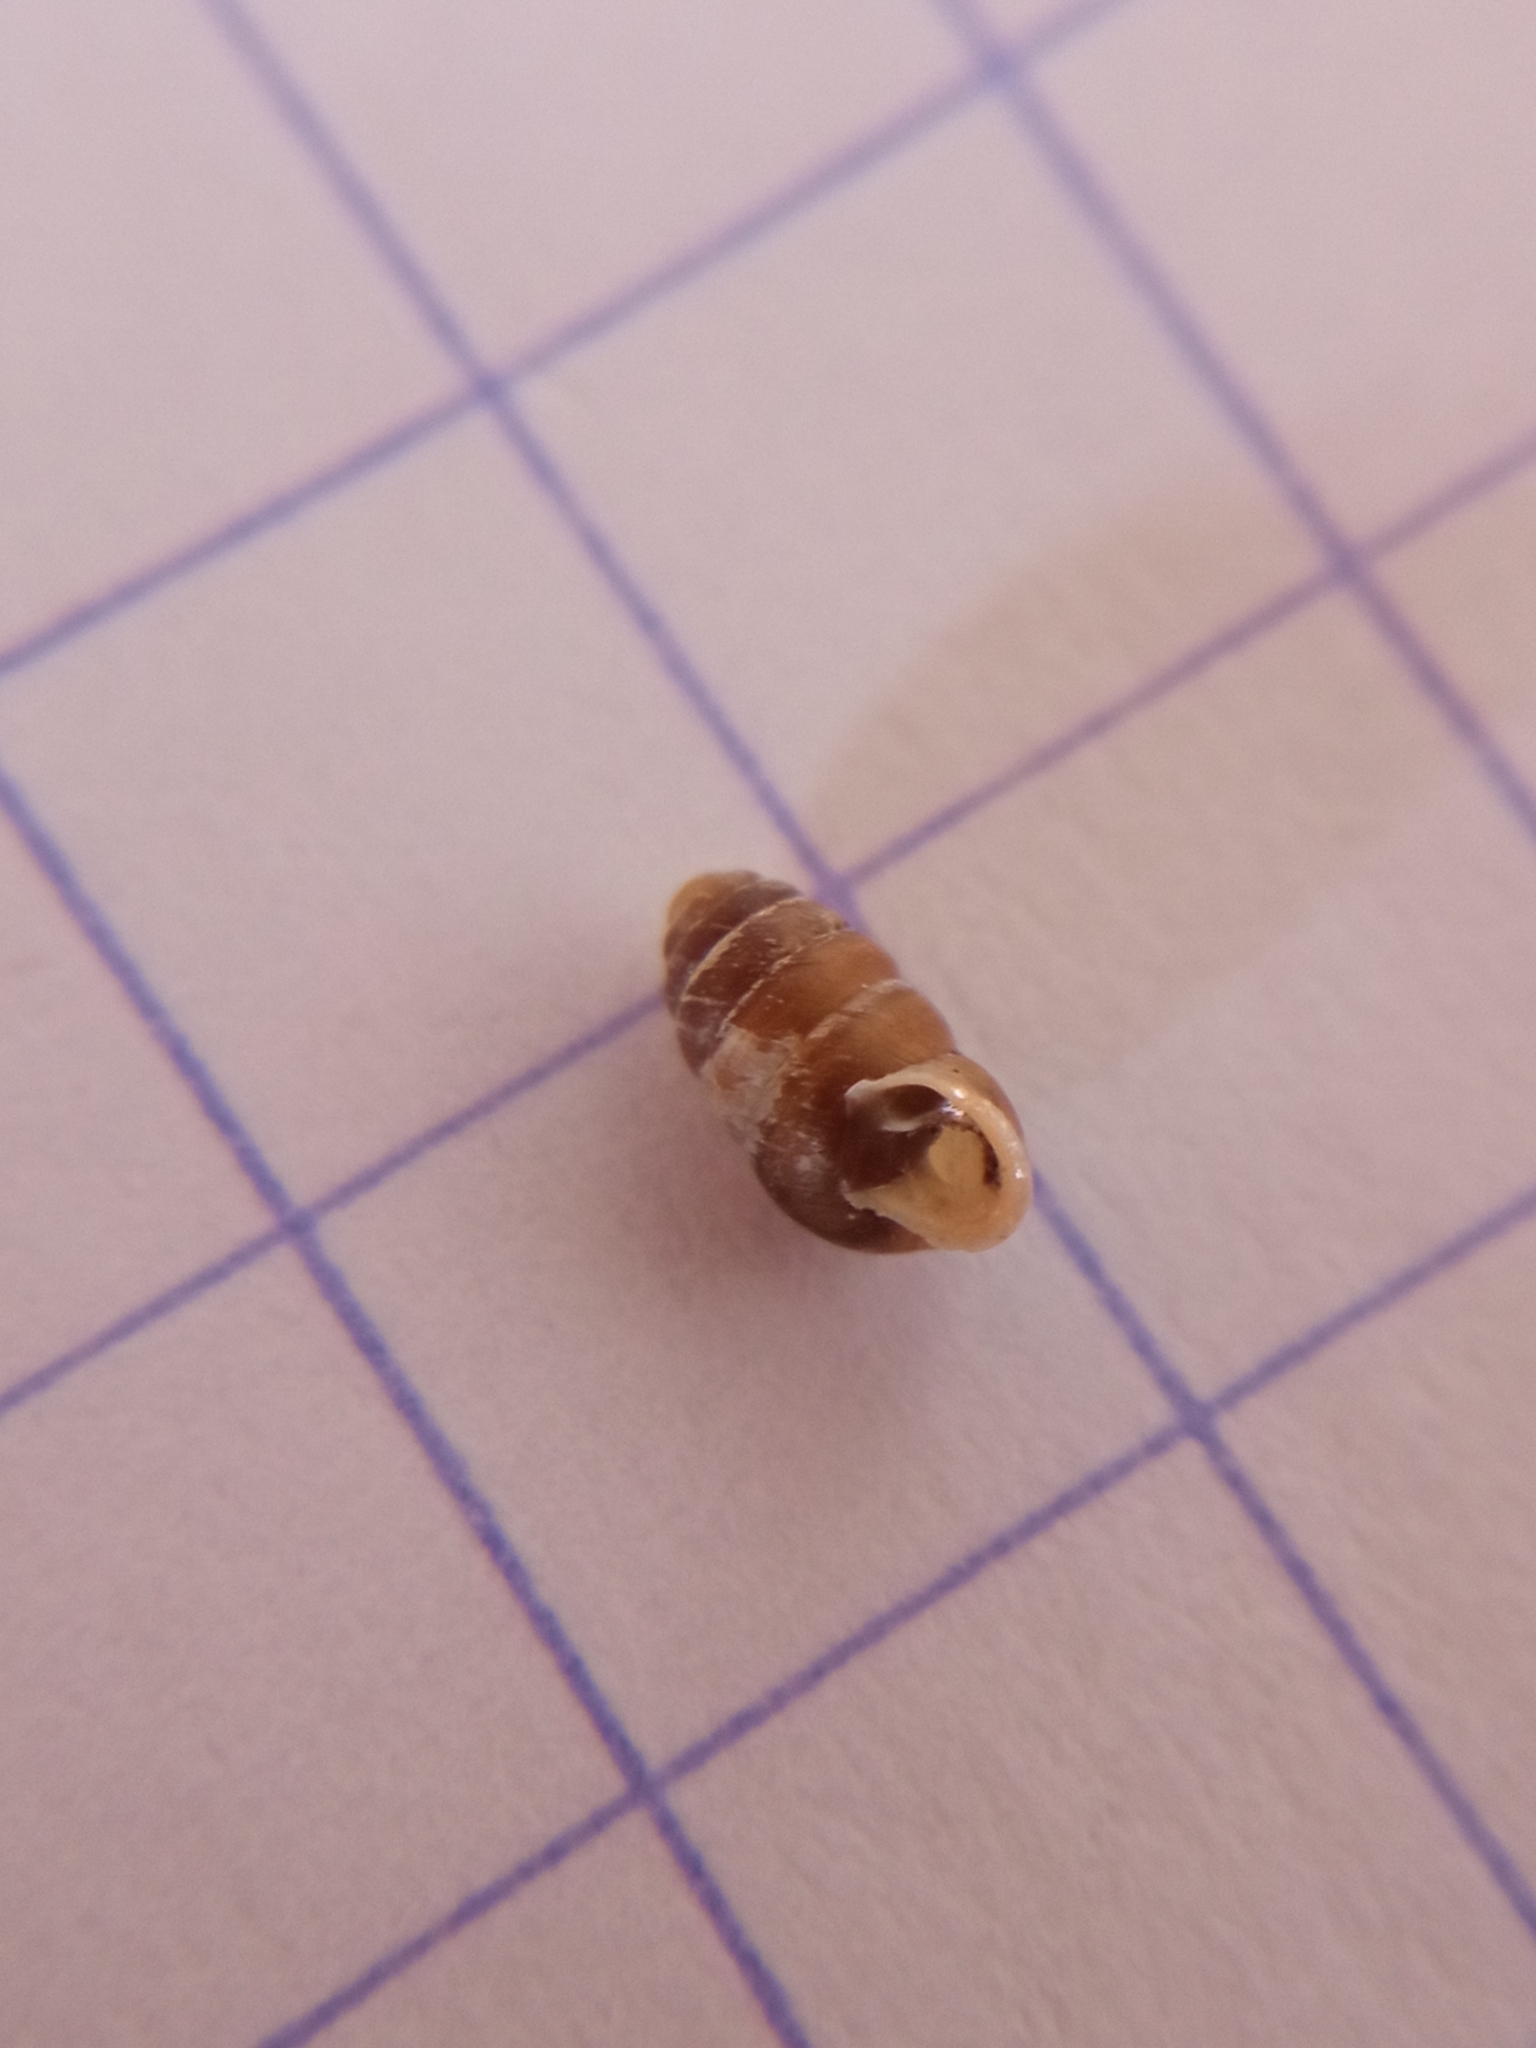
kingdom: Animalia
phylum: Mollusca
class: Gastropoda
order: Stylommatophora
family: Lauriidae
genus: Lauria
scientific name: Lauria cylindracea
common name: Common chrysalis snail
